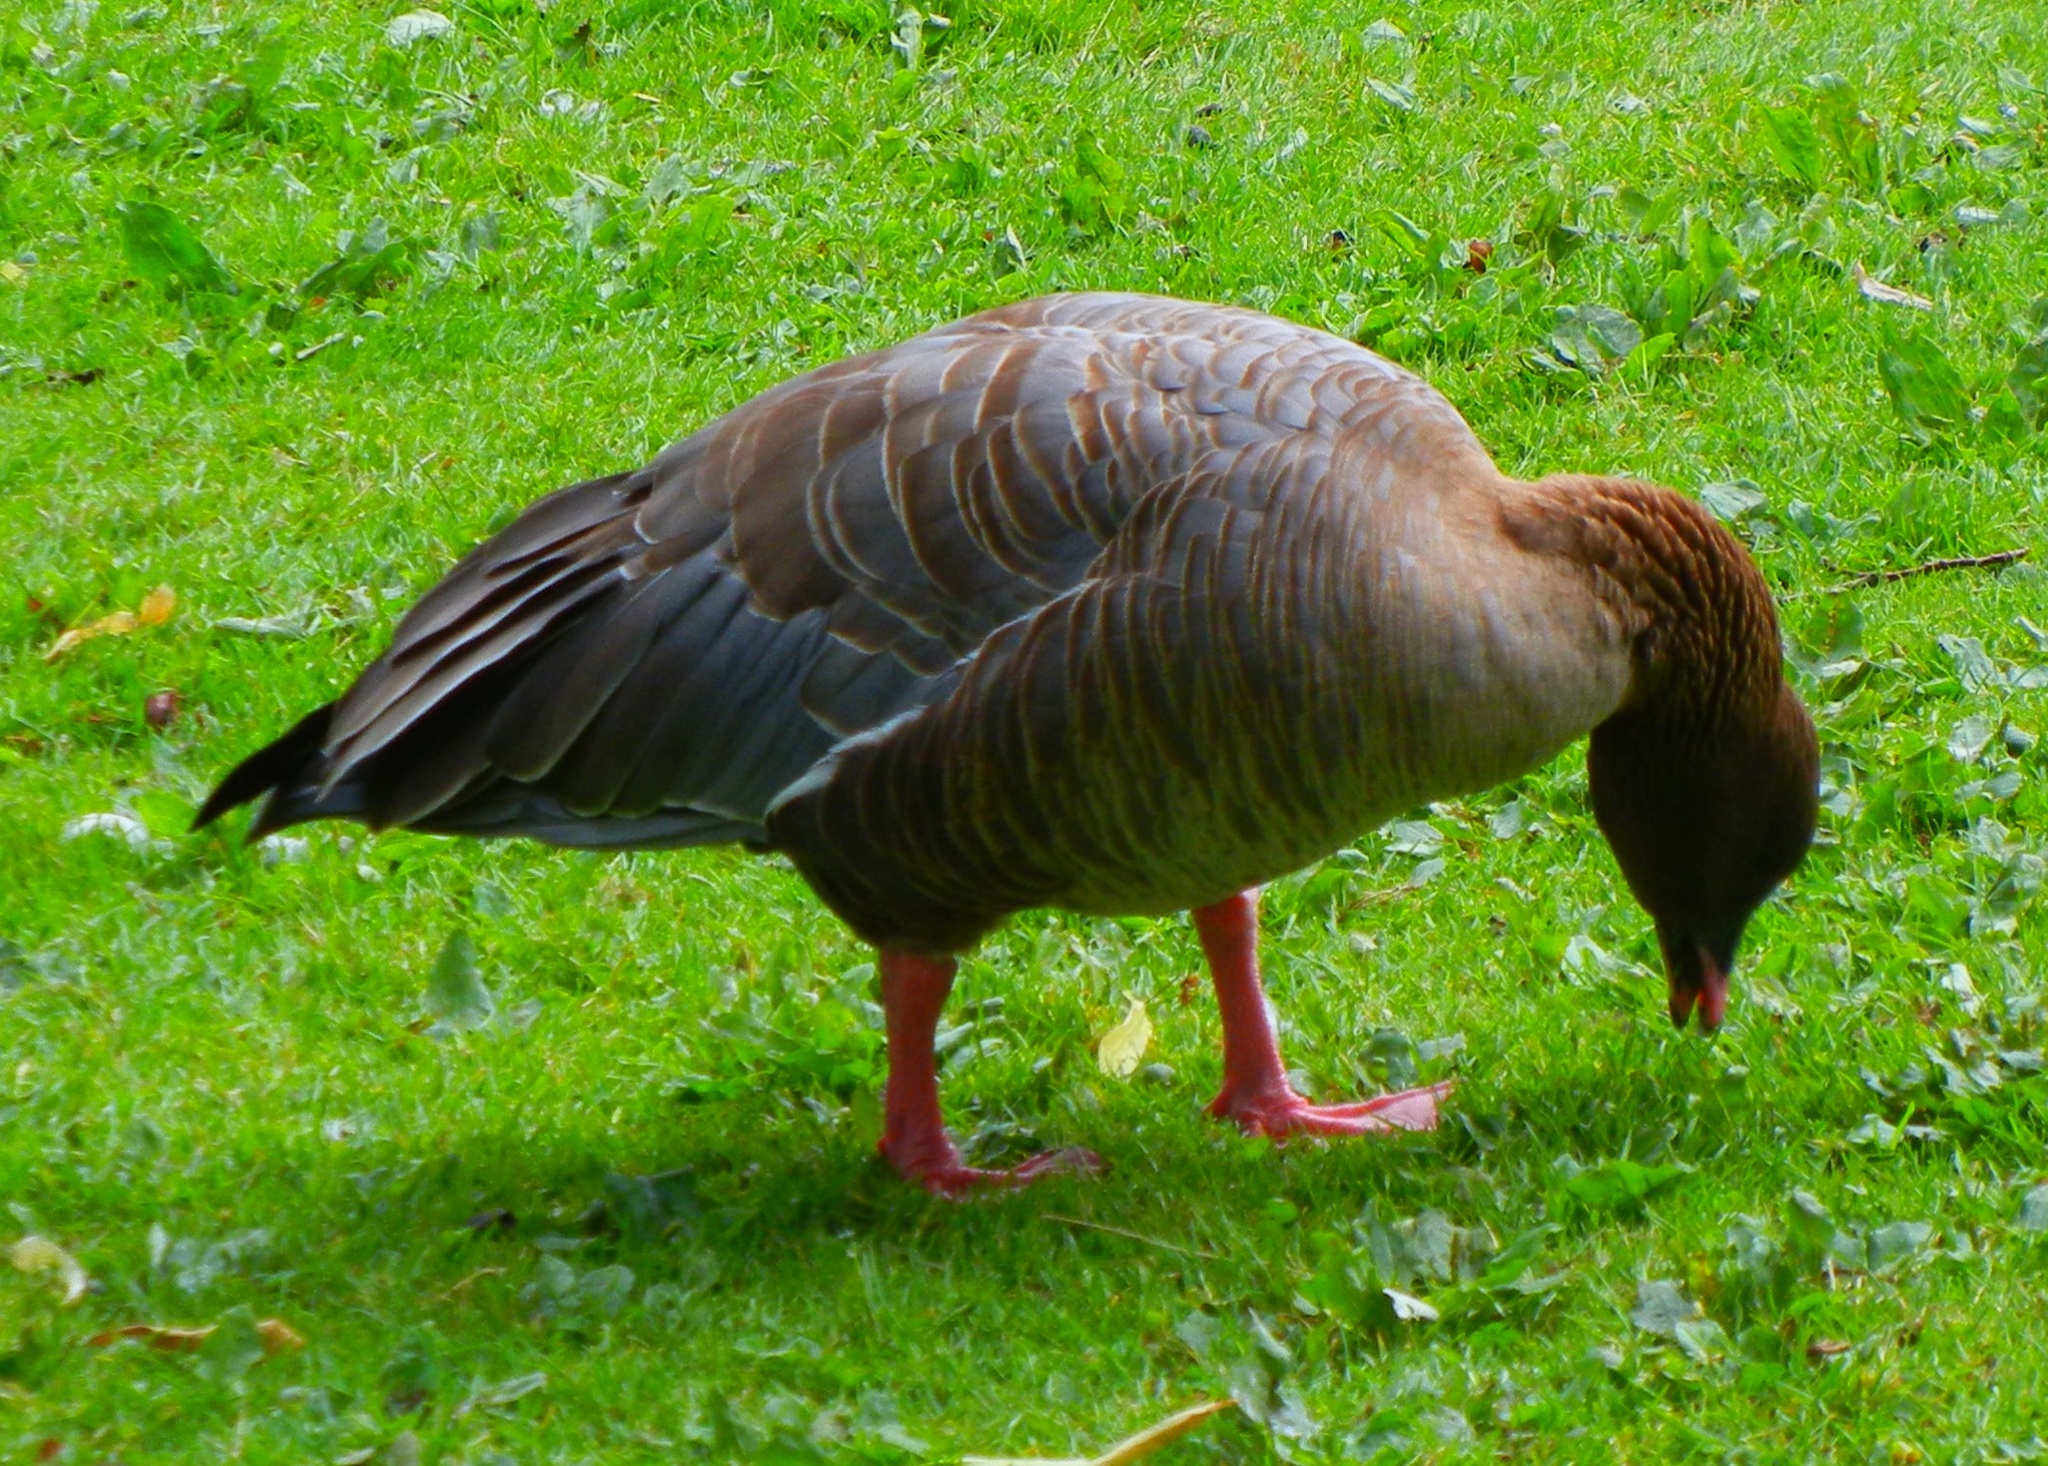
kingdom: Animalia
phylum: Chordata
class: Aves
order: Anseriformes
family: Anatidae
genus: Anser
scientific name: Anser brachyrhynchus
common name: Pink-footed goose
